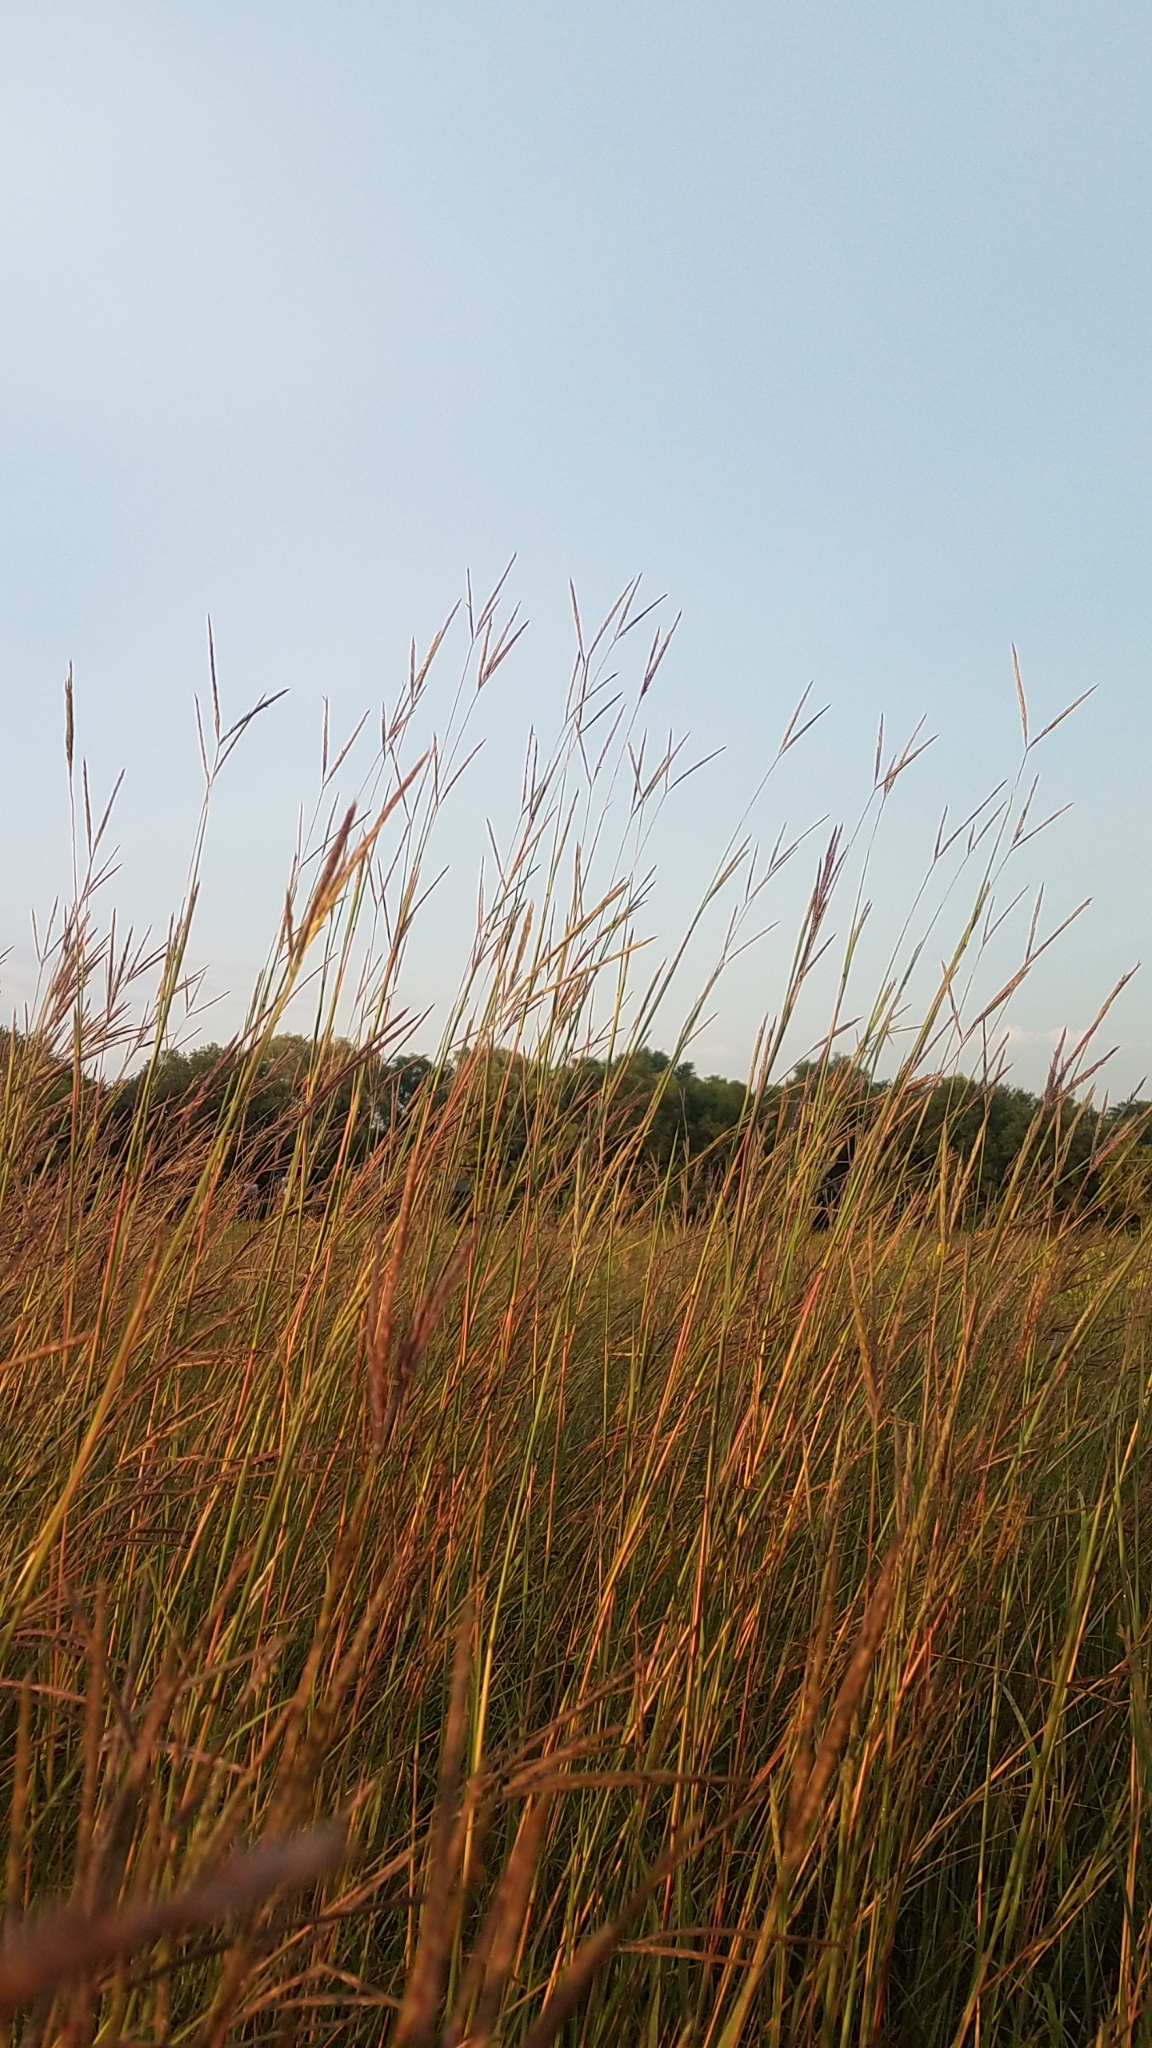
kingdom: Plantae
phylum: Tracheophyta
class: Liliopsida
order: Poales
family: Poaceae
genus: Andropogon
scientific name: Andropogon gerardi
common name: Big bluestem
